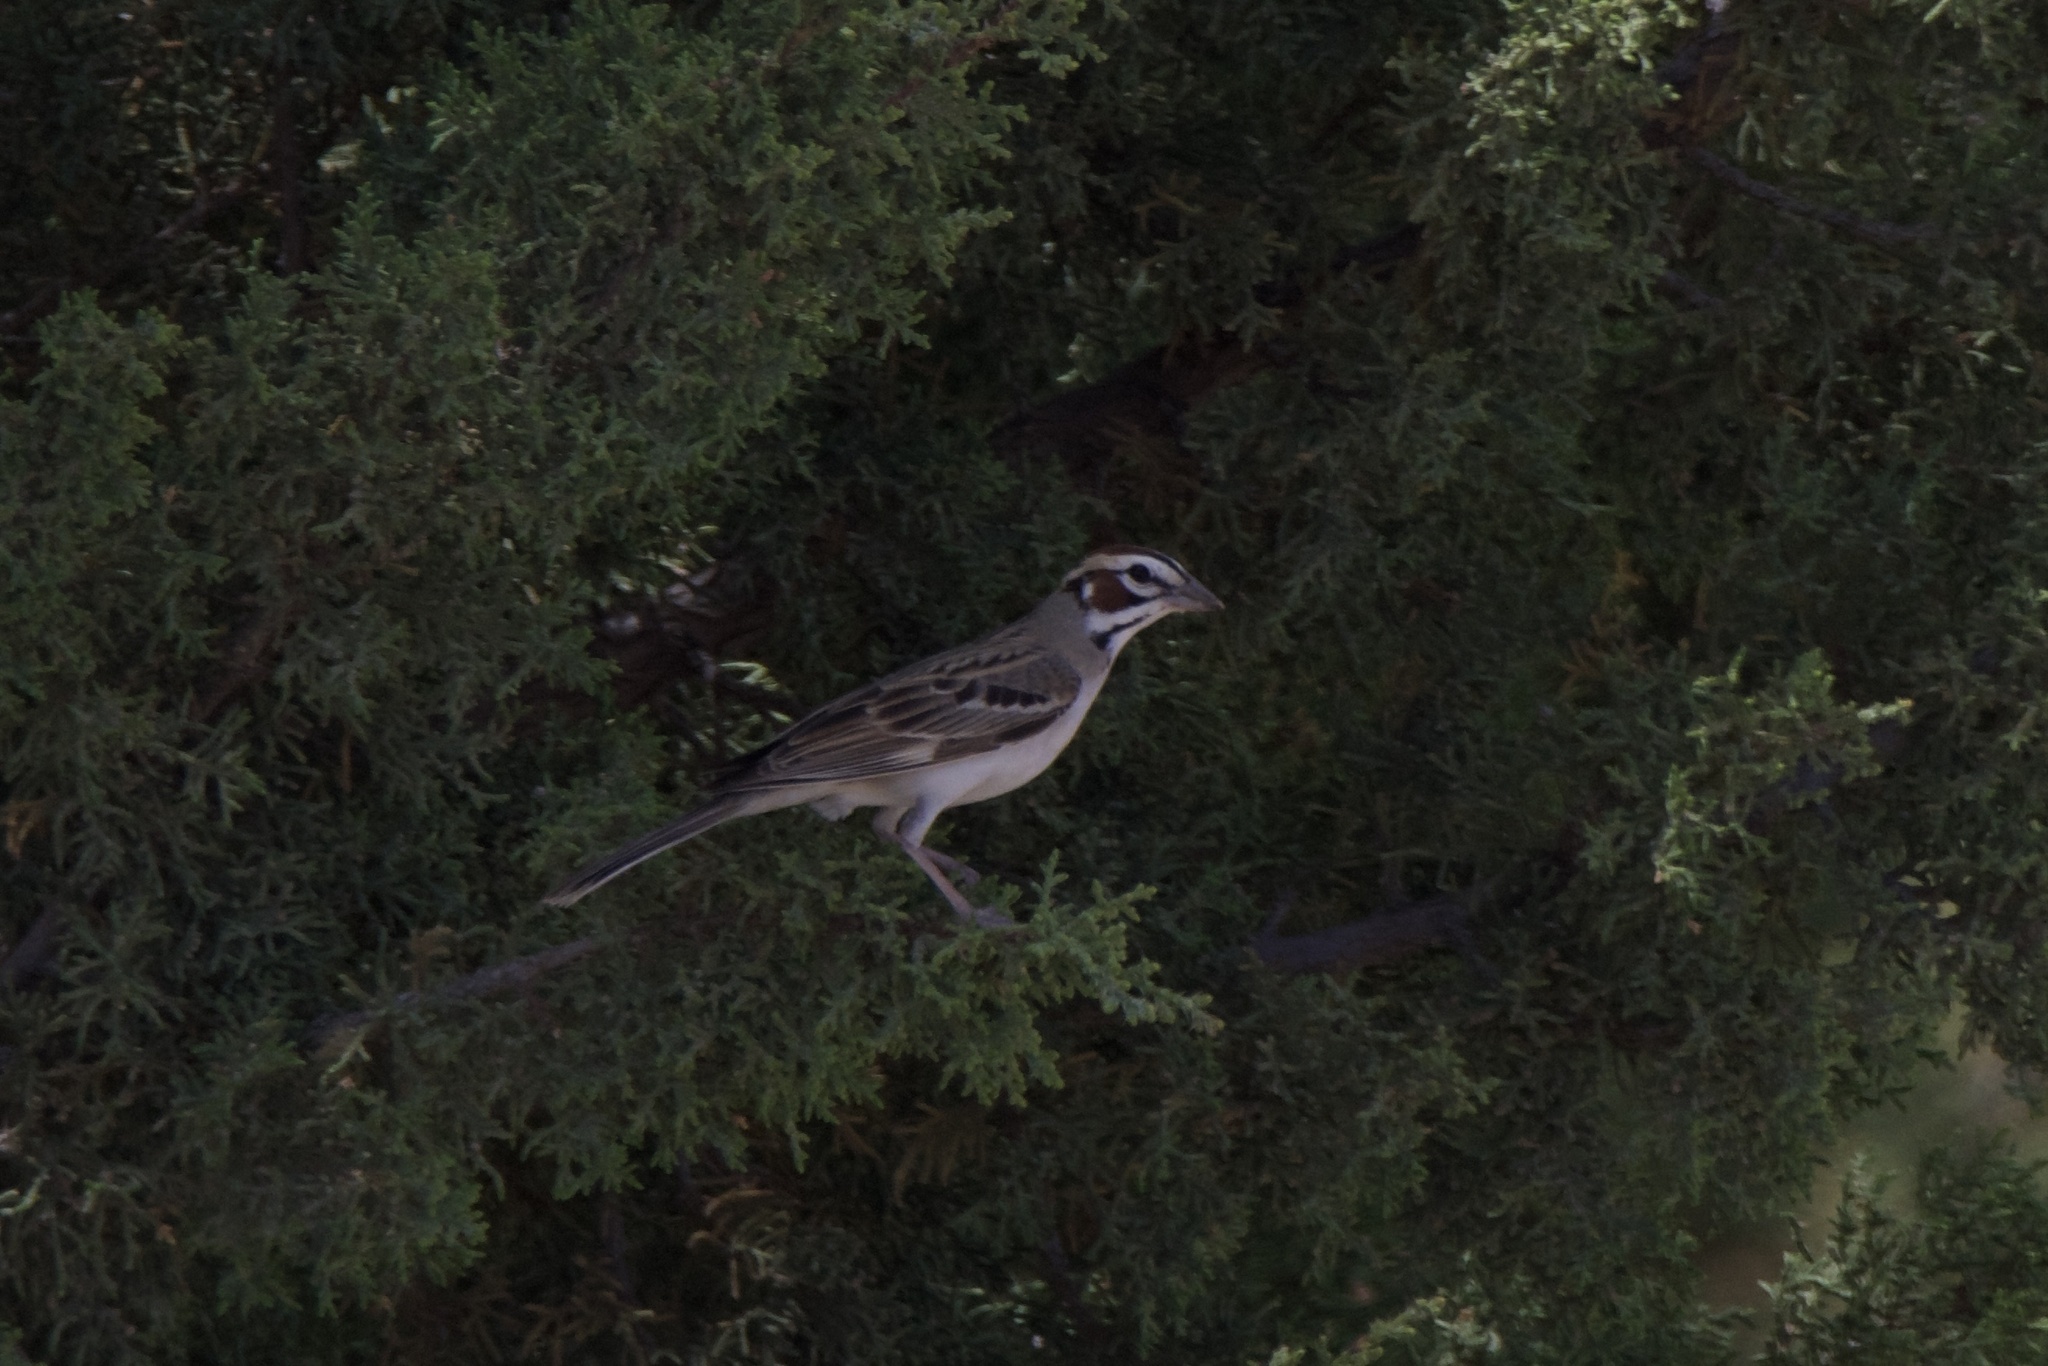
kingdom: Animalia
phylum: Chordata
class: Aves
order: Passeriformes
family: Passerellidae
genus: Chondestes
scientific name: Chondestes grammacus
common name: Lark sparrow
